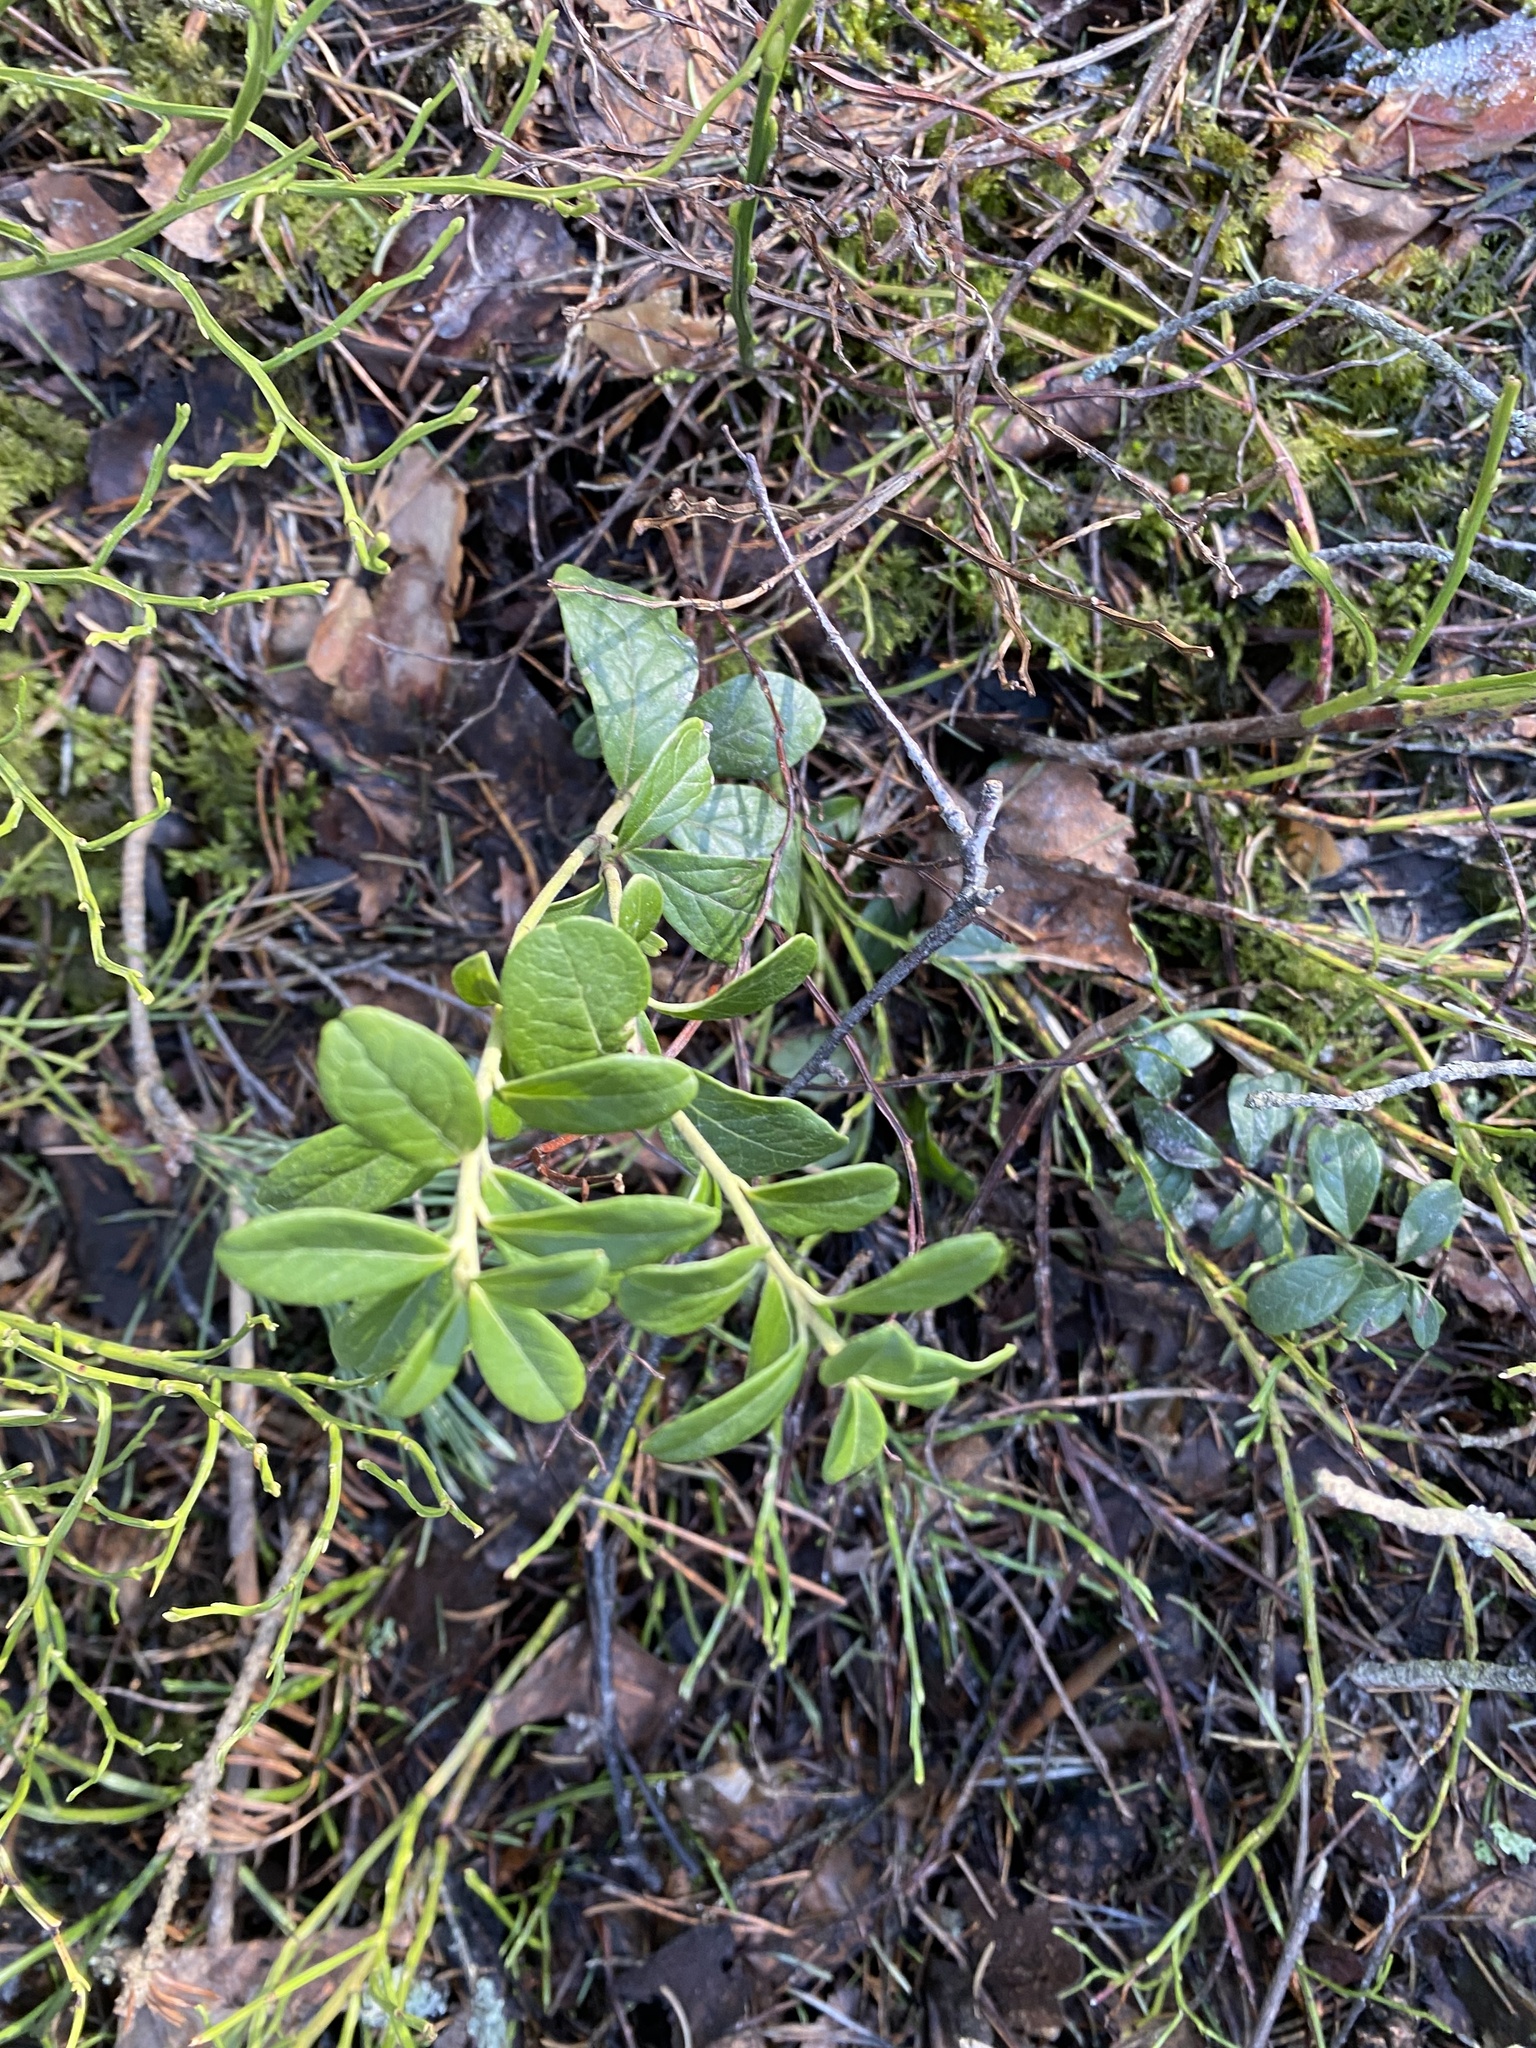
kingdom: Plantae
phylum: Tracheophyta
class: Magnoliopsida
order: Ericales
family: Ericaceae
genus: Vaccinium
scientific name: Vaccinium vitis-idaea
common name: Cowberry
